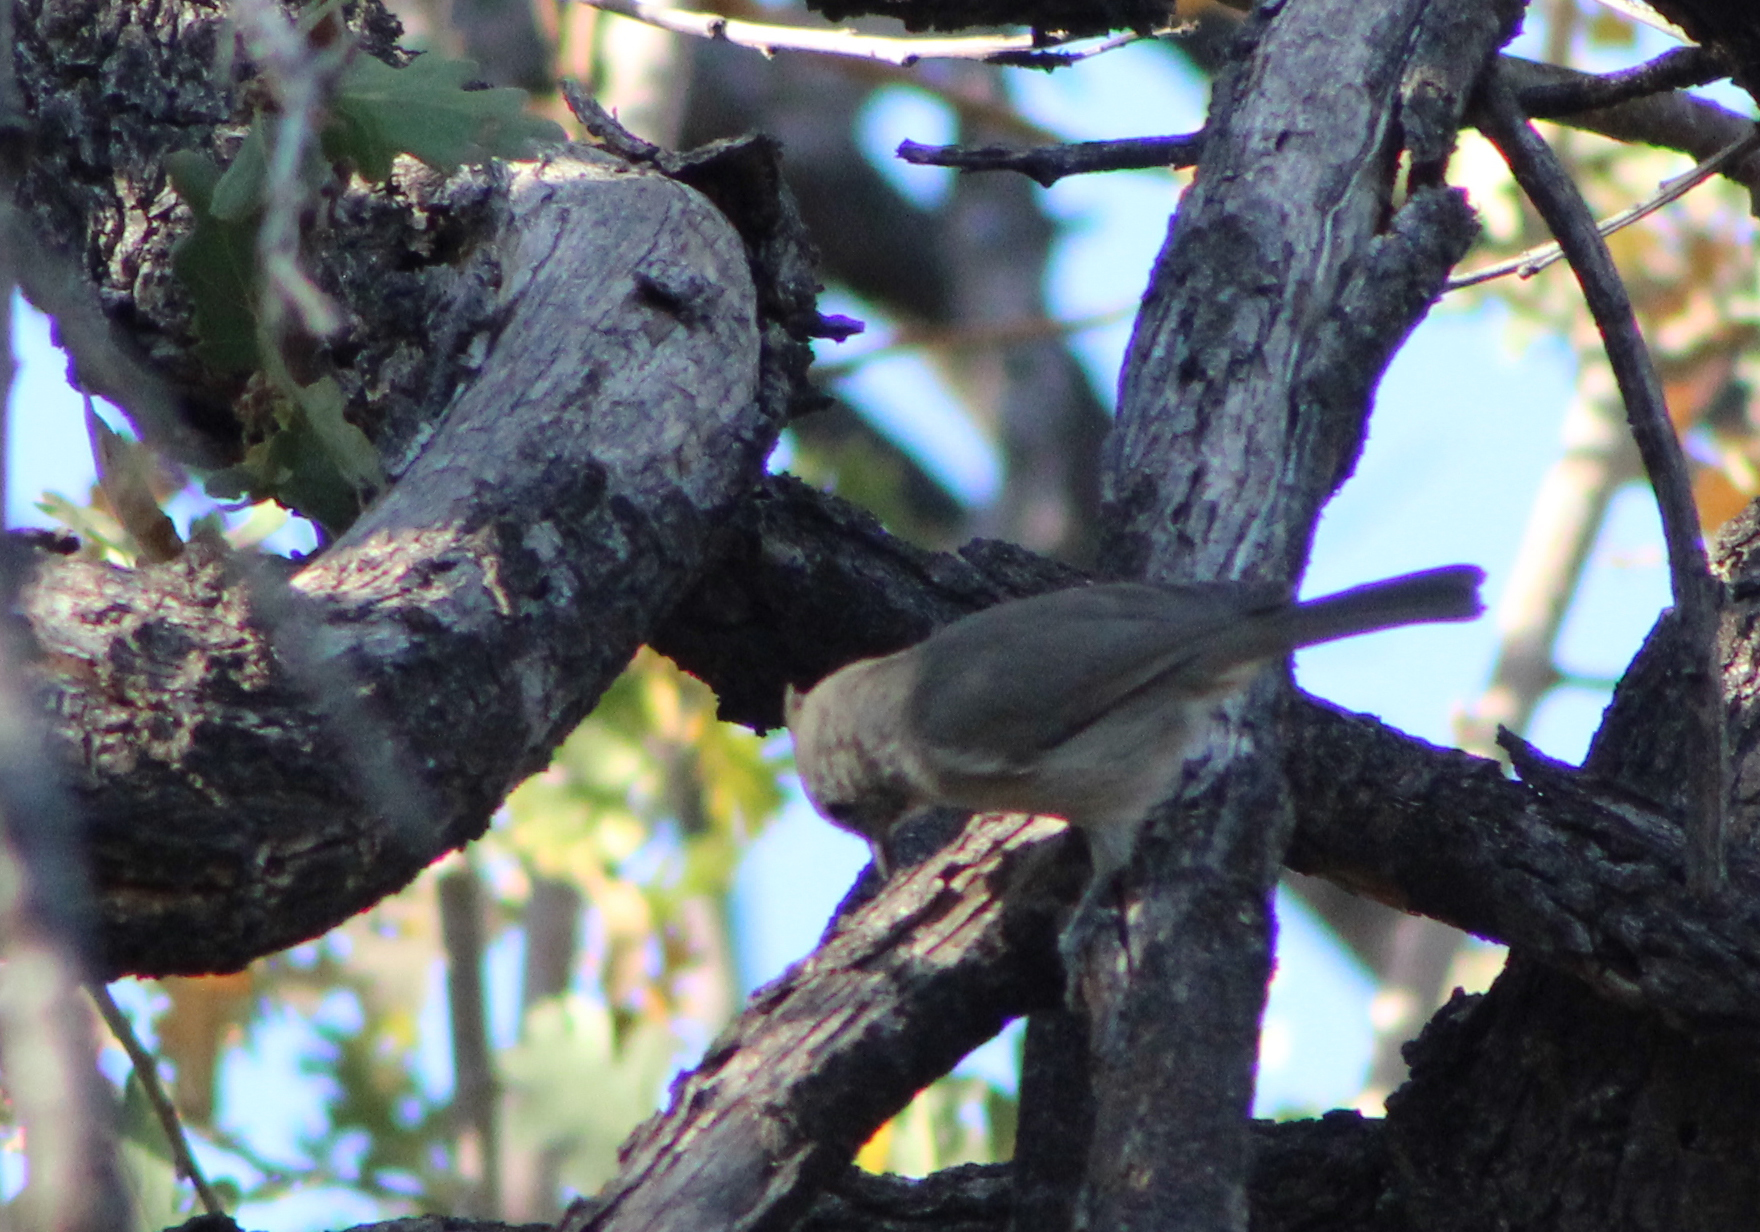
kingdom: Animalia
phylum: Chordata
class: Aves
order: Passeriformes
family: Paridae
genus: Baeolophus
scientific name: Baeolophus inornatus
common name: Oak titmouse
